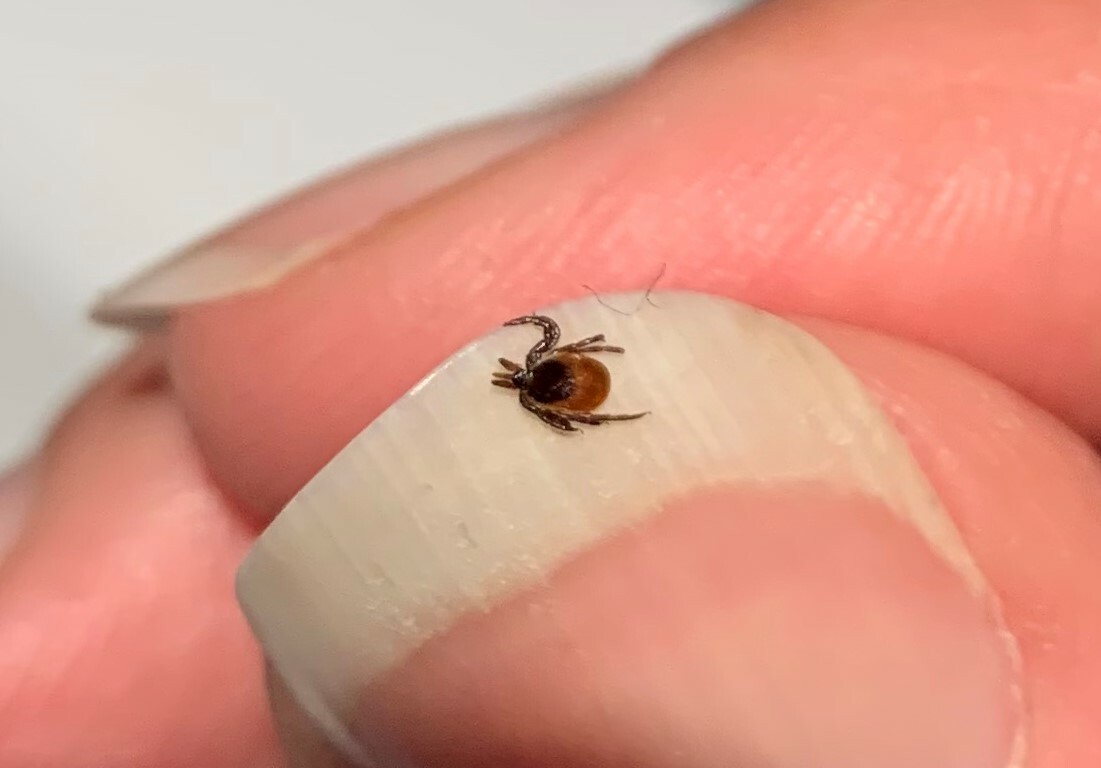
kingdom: Animalia
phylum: Arthropoda
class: Arachnida
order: Ixodida
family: Ixodidae
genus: Ixodes
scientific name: Ixodes scapularis
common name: Black legged tick
